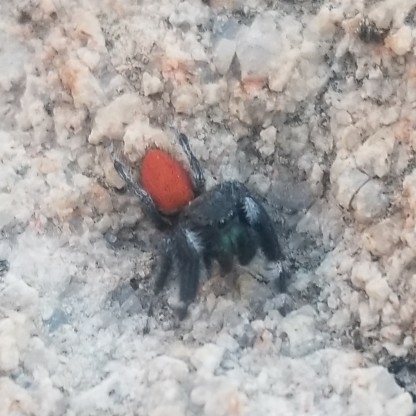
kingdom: Animalia
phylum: Arthropoda
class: Arachnida
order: Araneae
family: Salticidae
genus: Phidippus
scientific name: Phidippus boei
